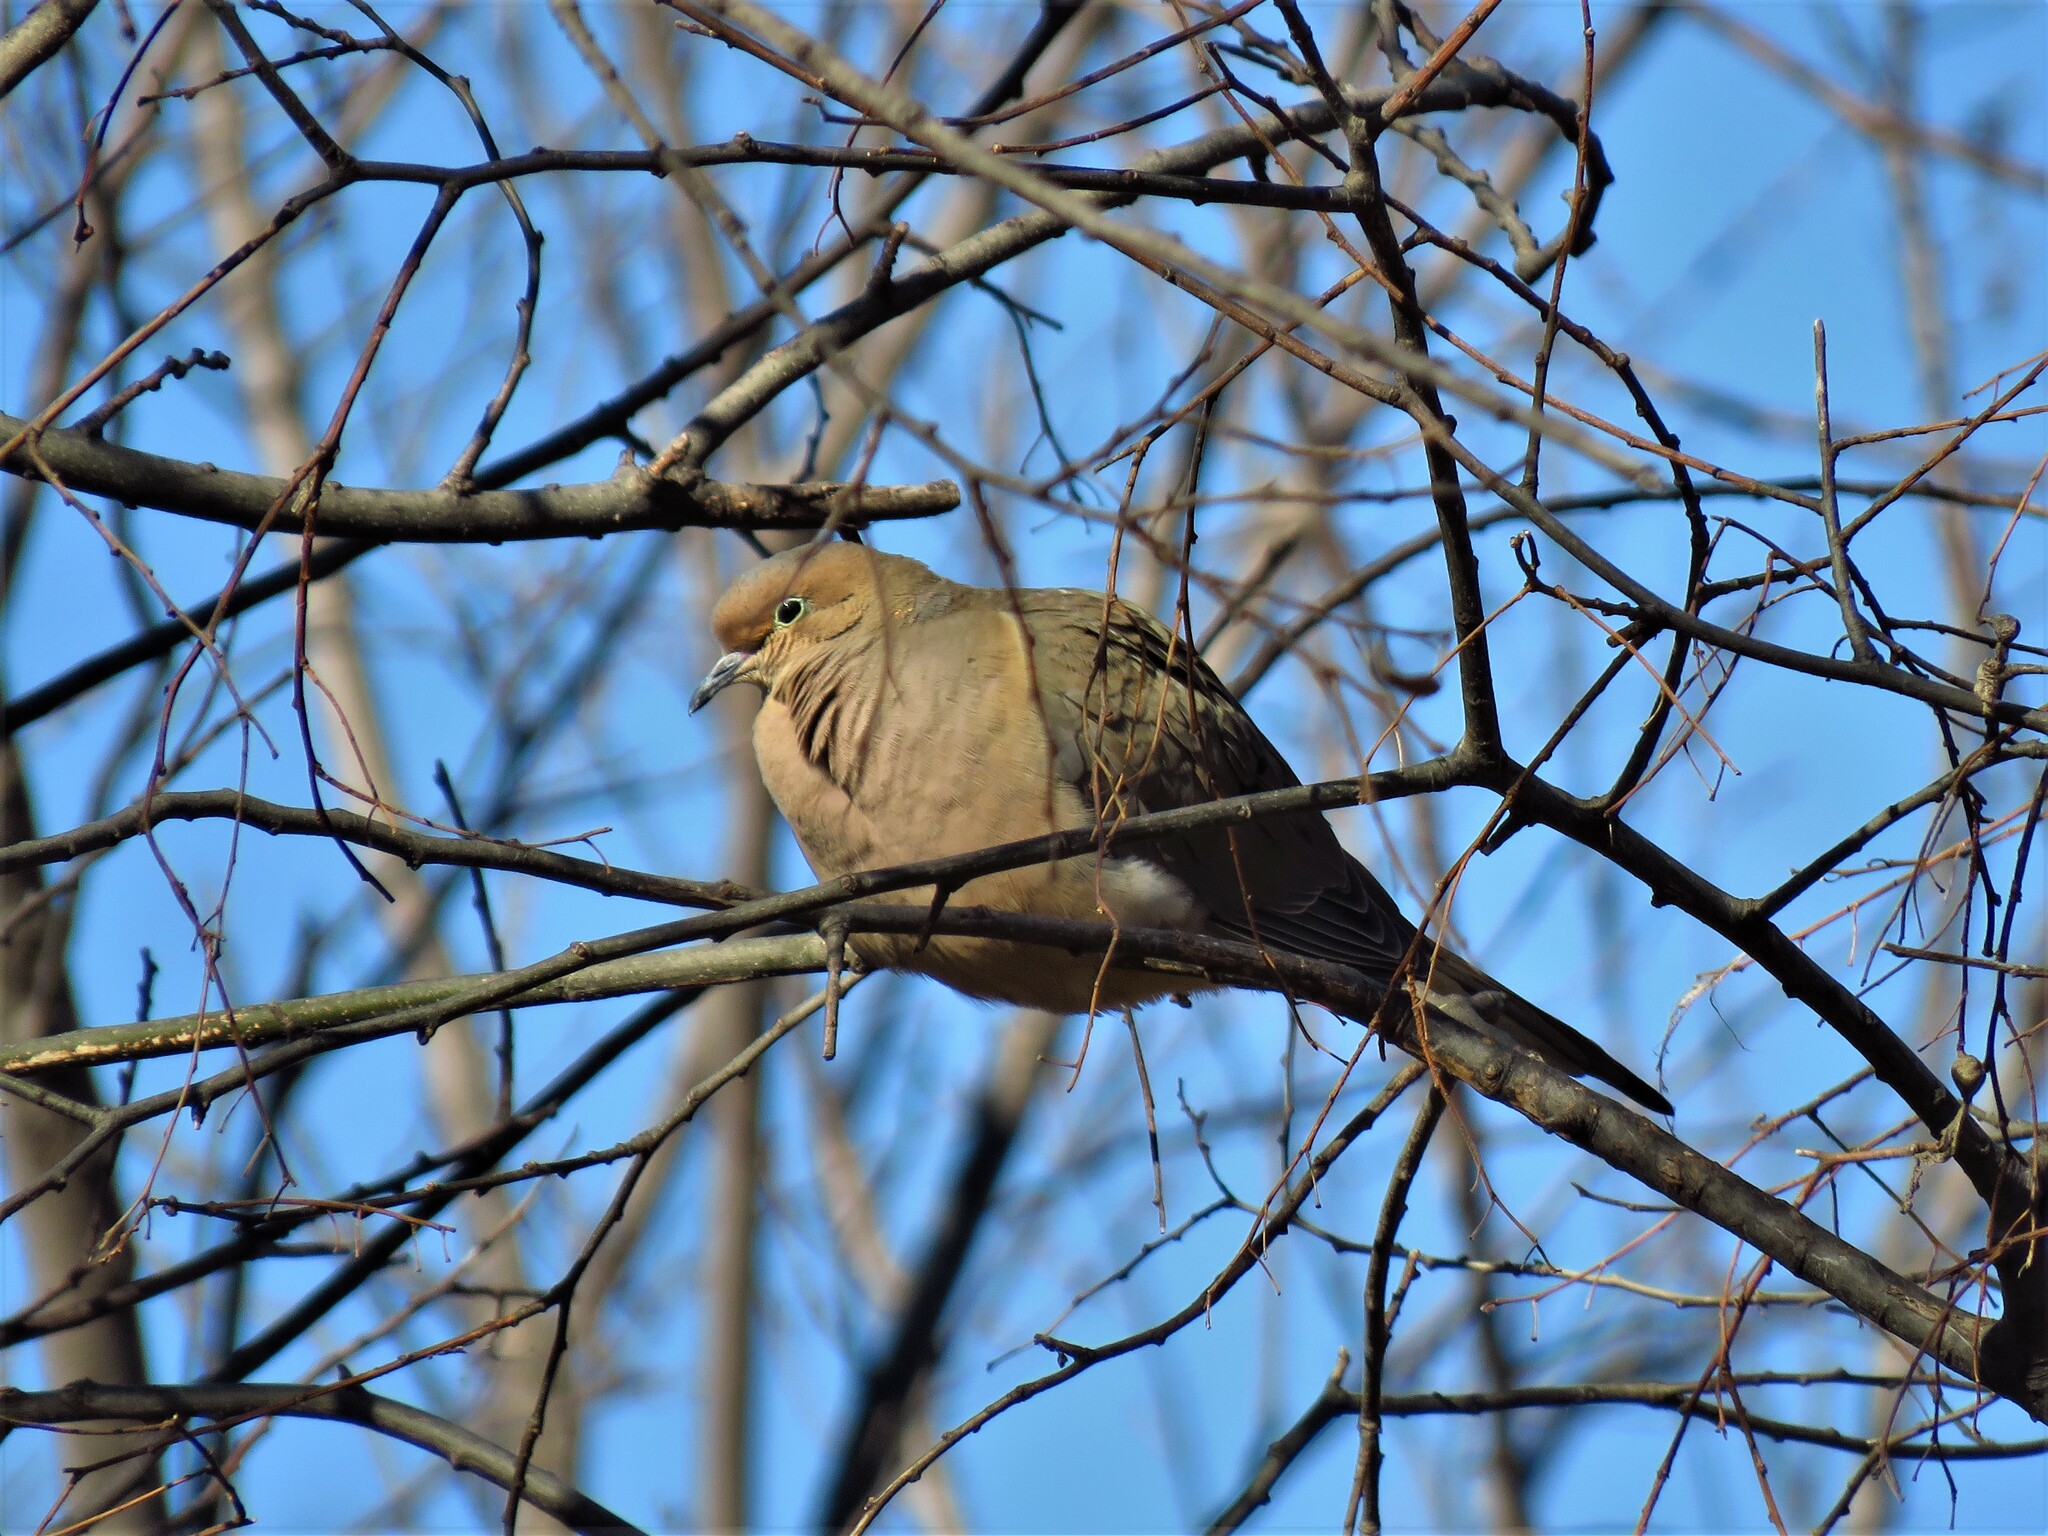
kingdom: Animalia
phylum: Chordata
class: Aves
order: Columbiformes
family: Columbidae
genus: Zenaida
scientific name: Zenaida macroura
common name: Mourning dove
